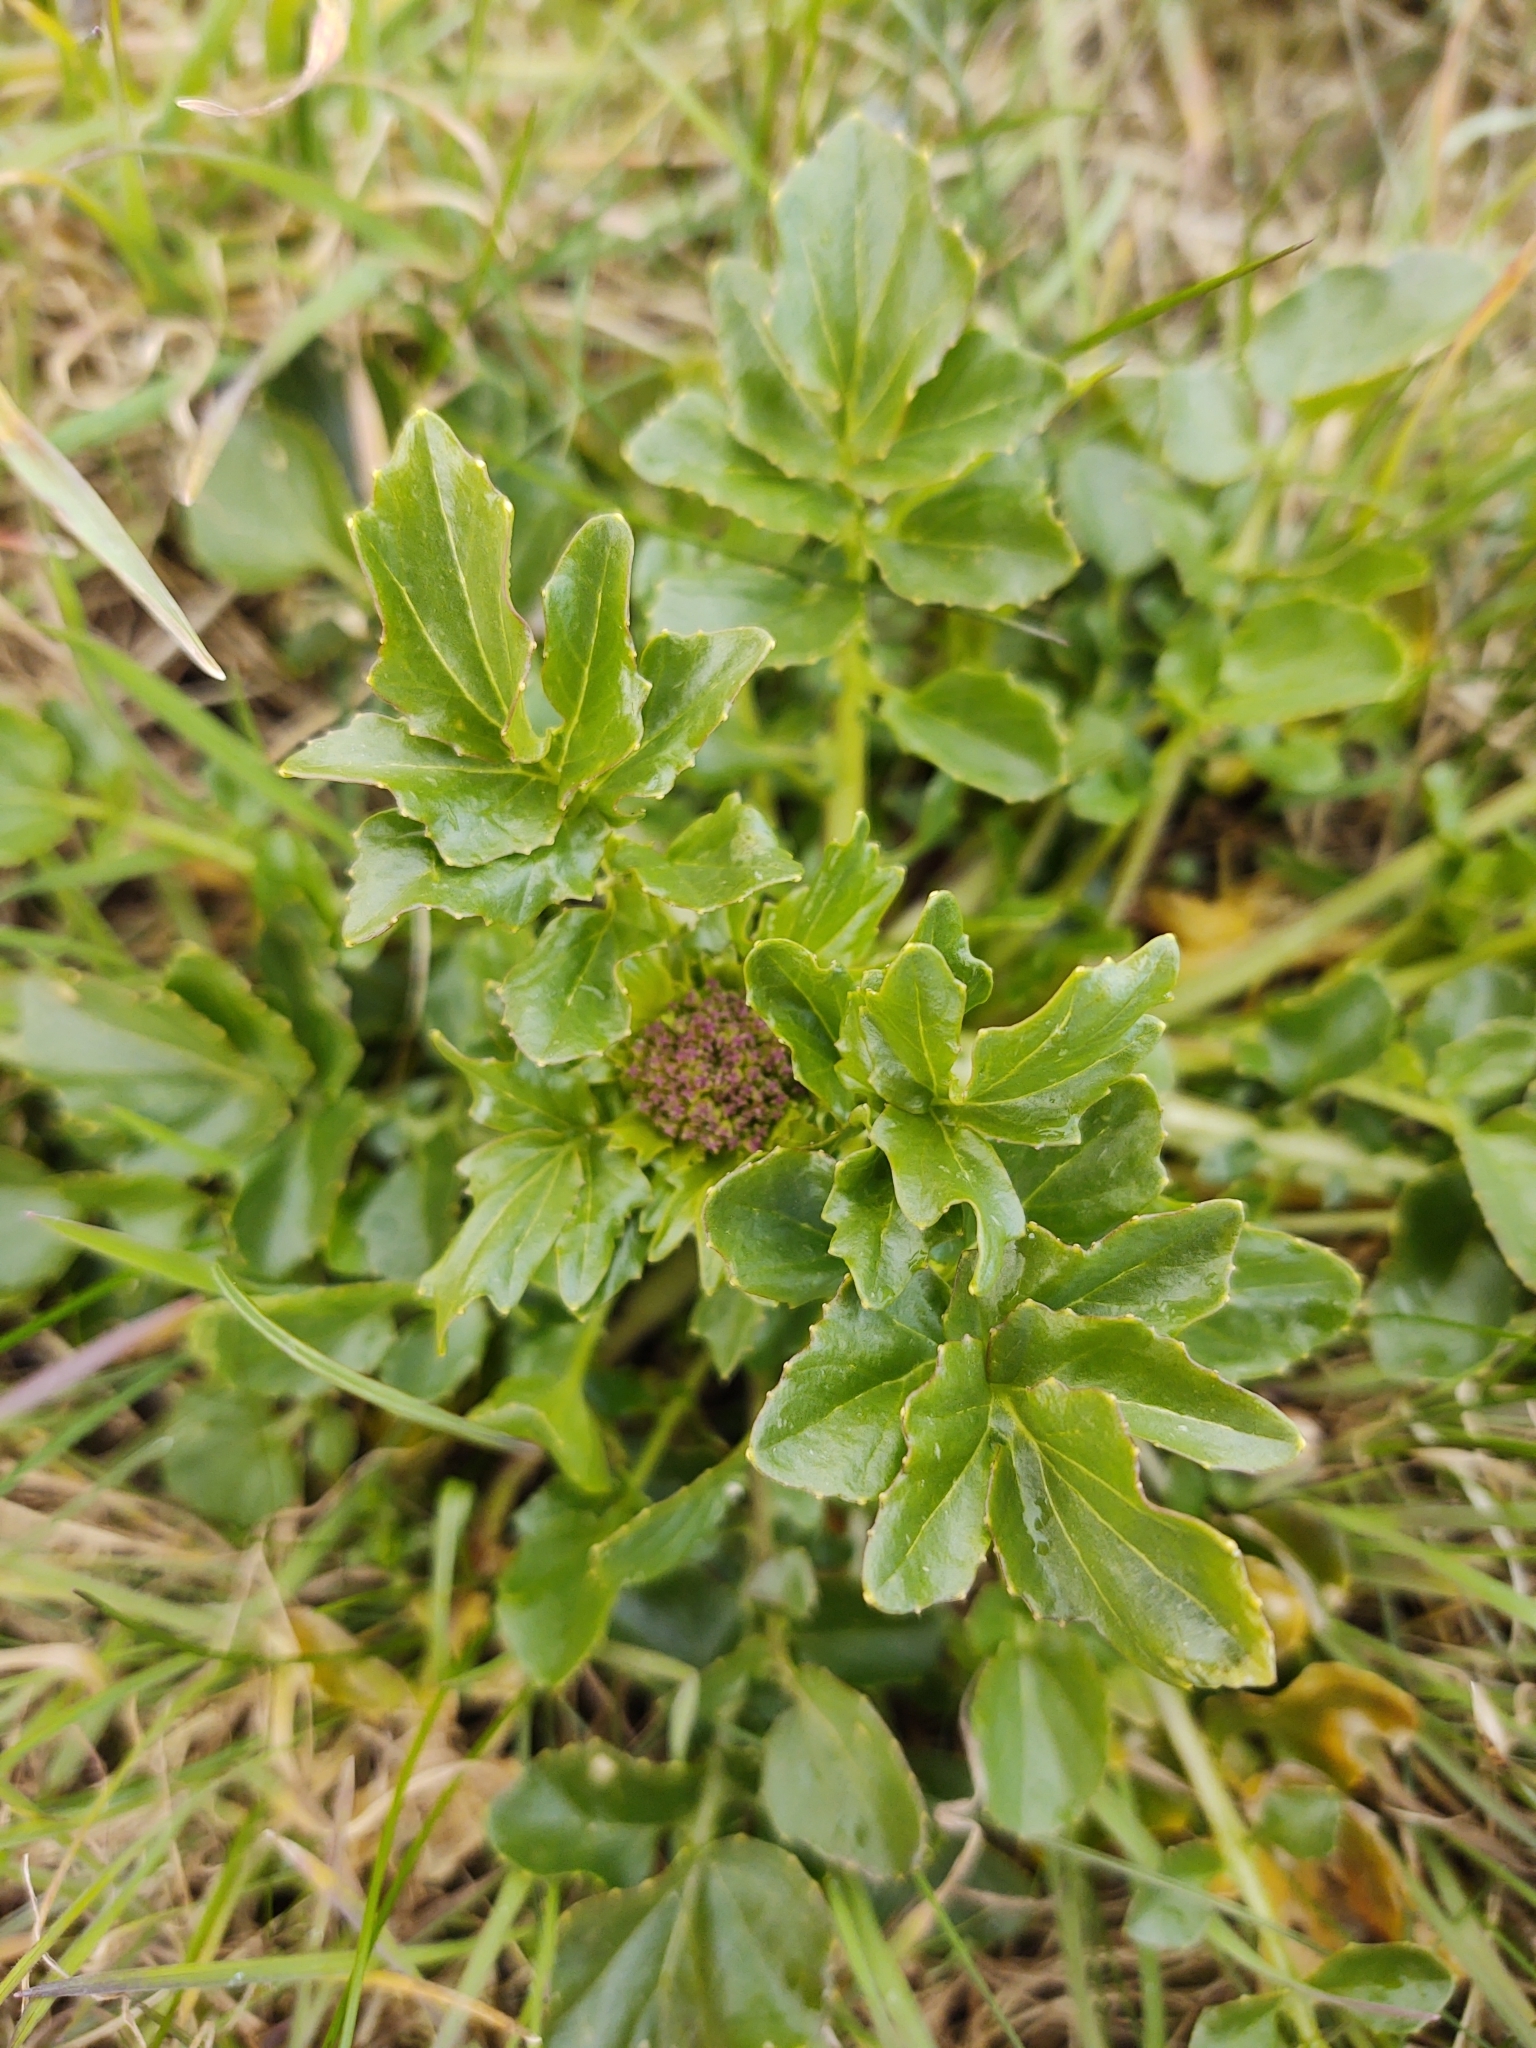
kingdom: Plantae
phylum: Tracheophyta
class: Magnoliopsida
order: Brassicales
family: Brassicaceae
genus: Barbarea
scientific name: Barbarea vulgaris
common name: Cressy-greens
